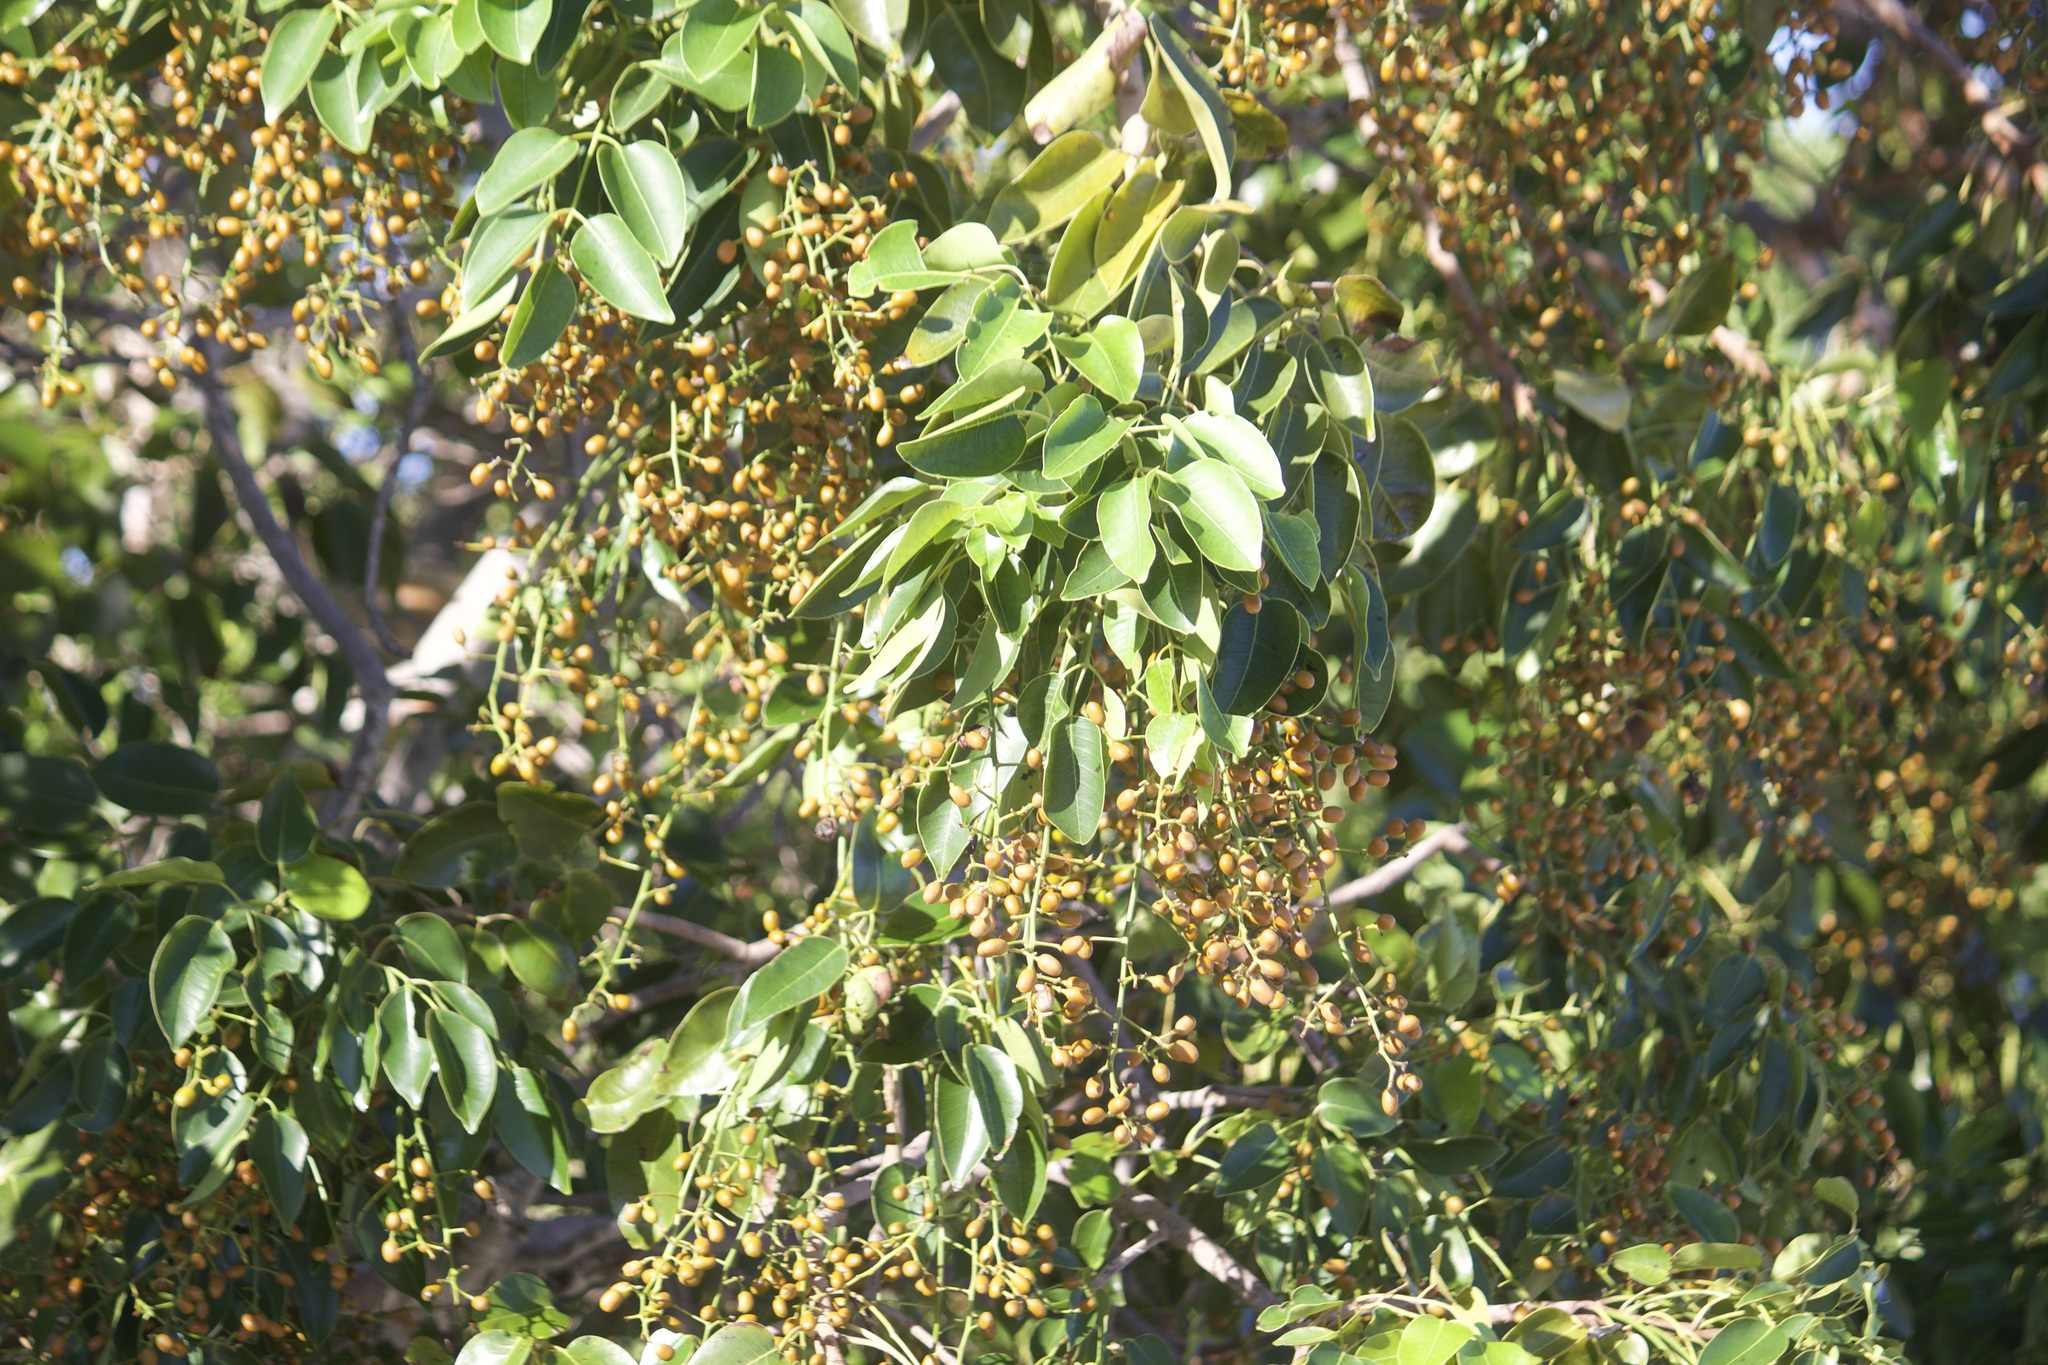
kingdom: Plantae
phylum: Tracheophyta
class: Magnoliopsida
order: Sapindales
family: Anacardiaceae
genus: Metopium
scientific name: Metopium toxiferum
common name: Florida poisontree
